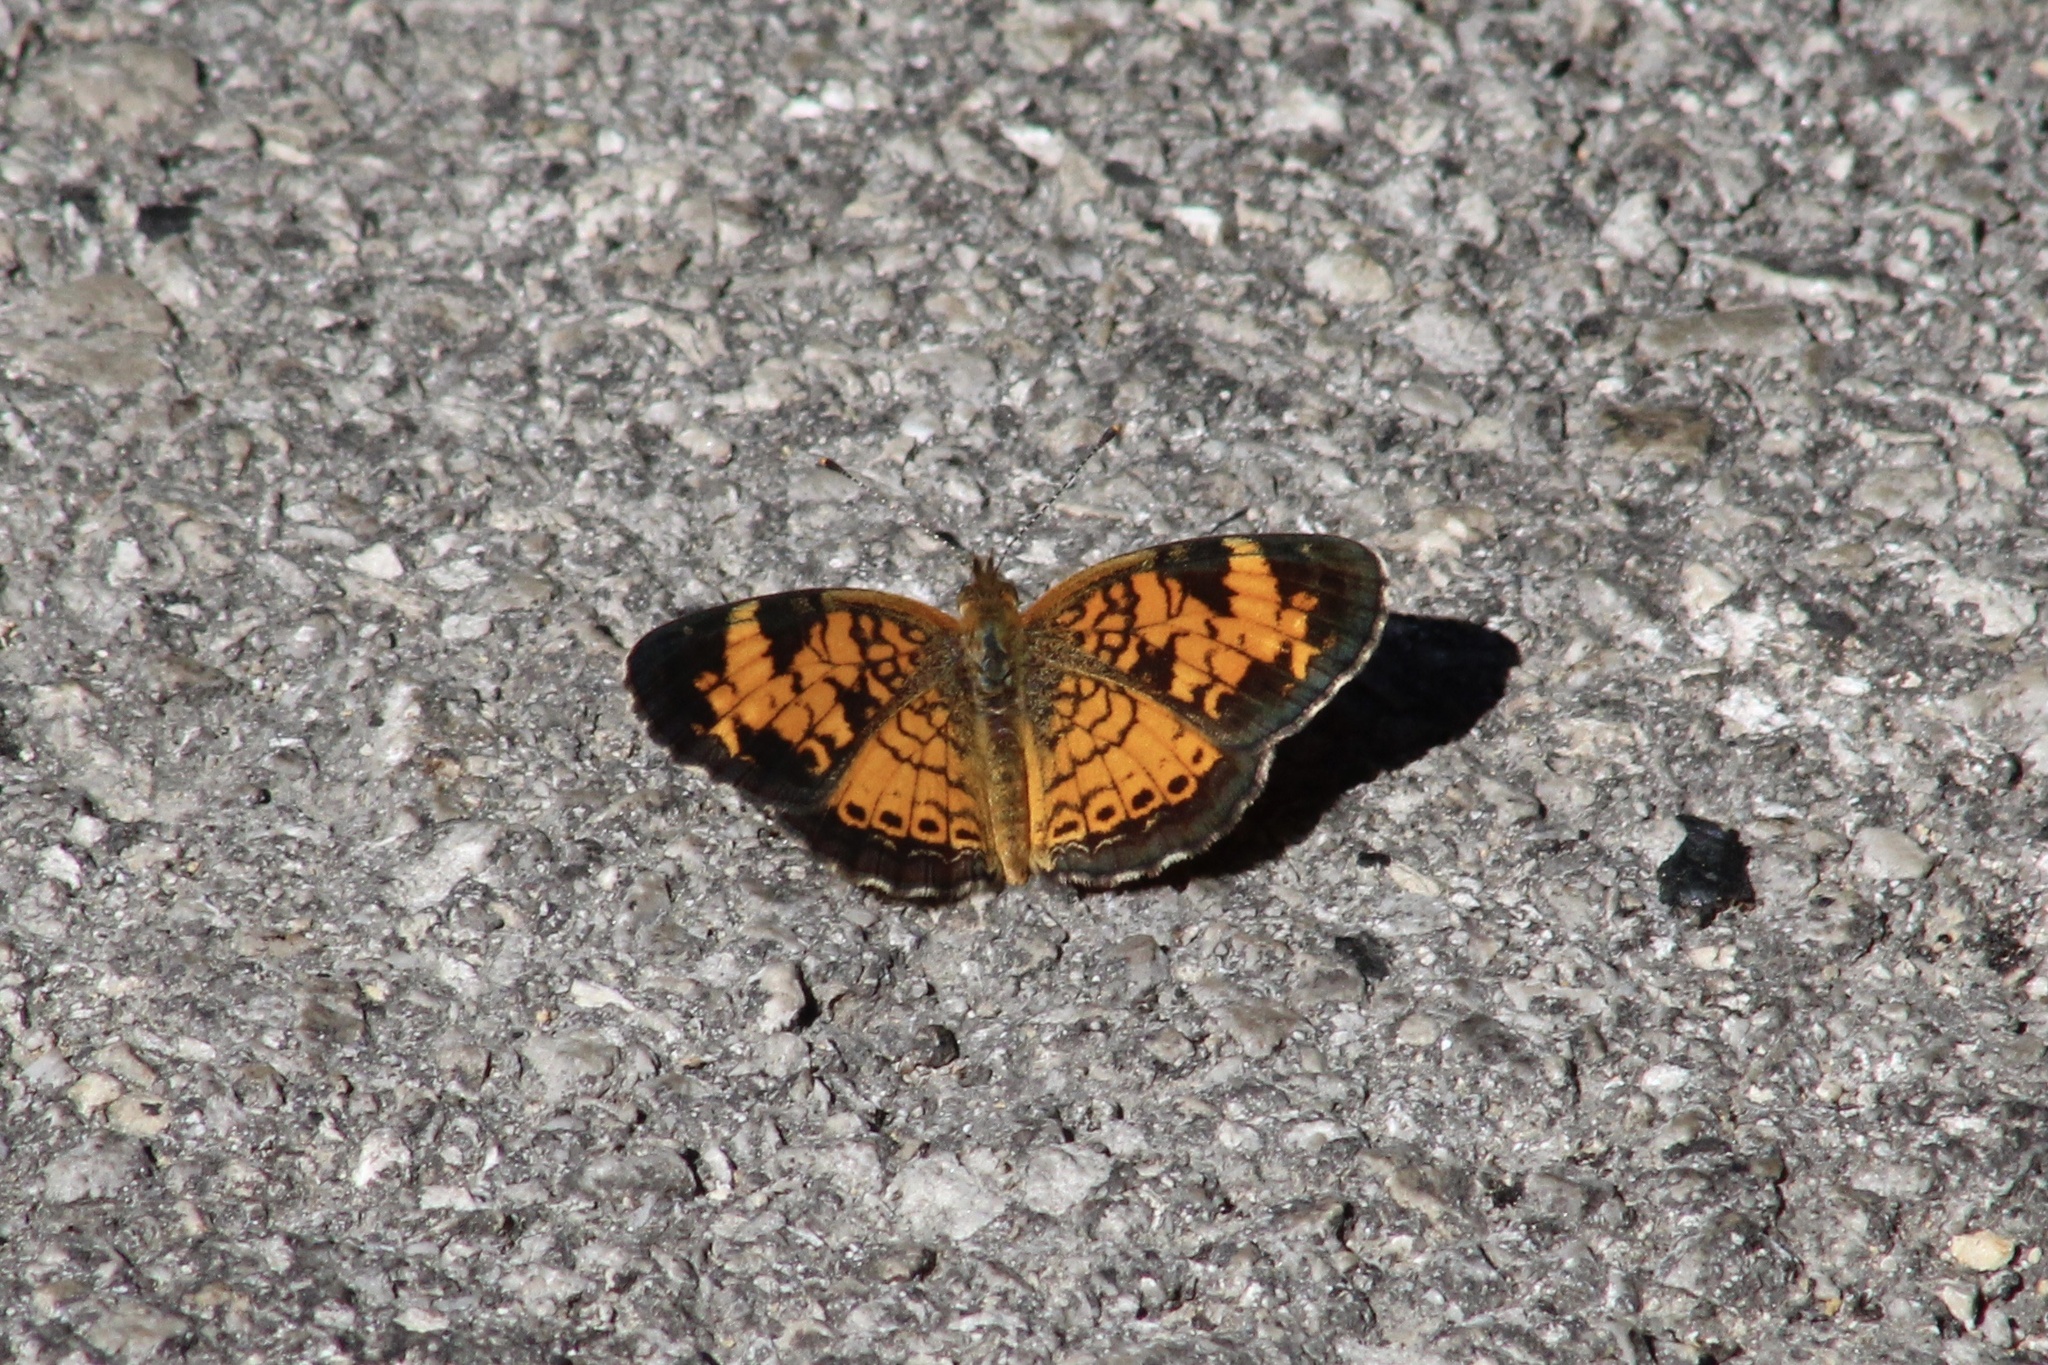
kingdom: Animalia
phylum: Arthropoda
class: Insecta
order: Lepidoptera
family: Nymphalidae
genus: Phyciodes
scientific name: Phyciodes tharos
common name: Pearl crescent
